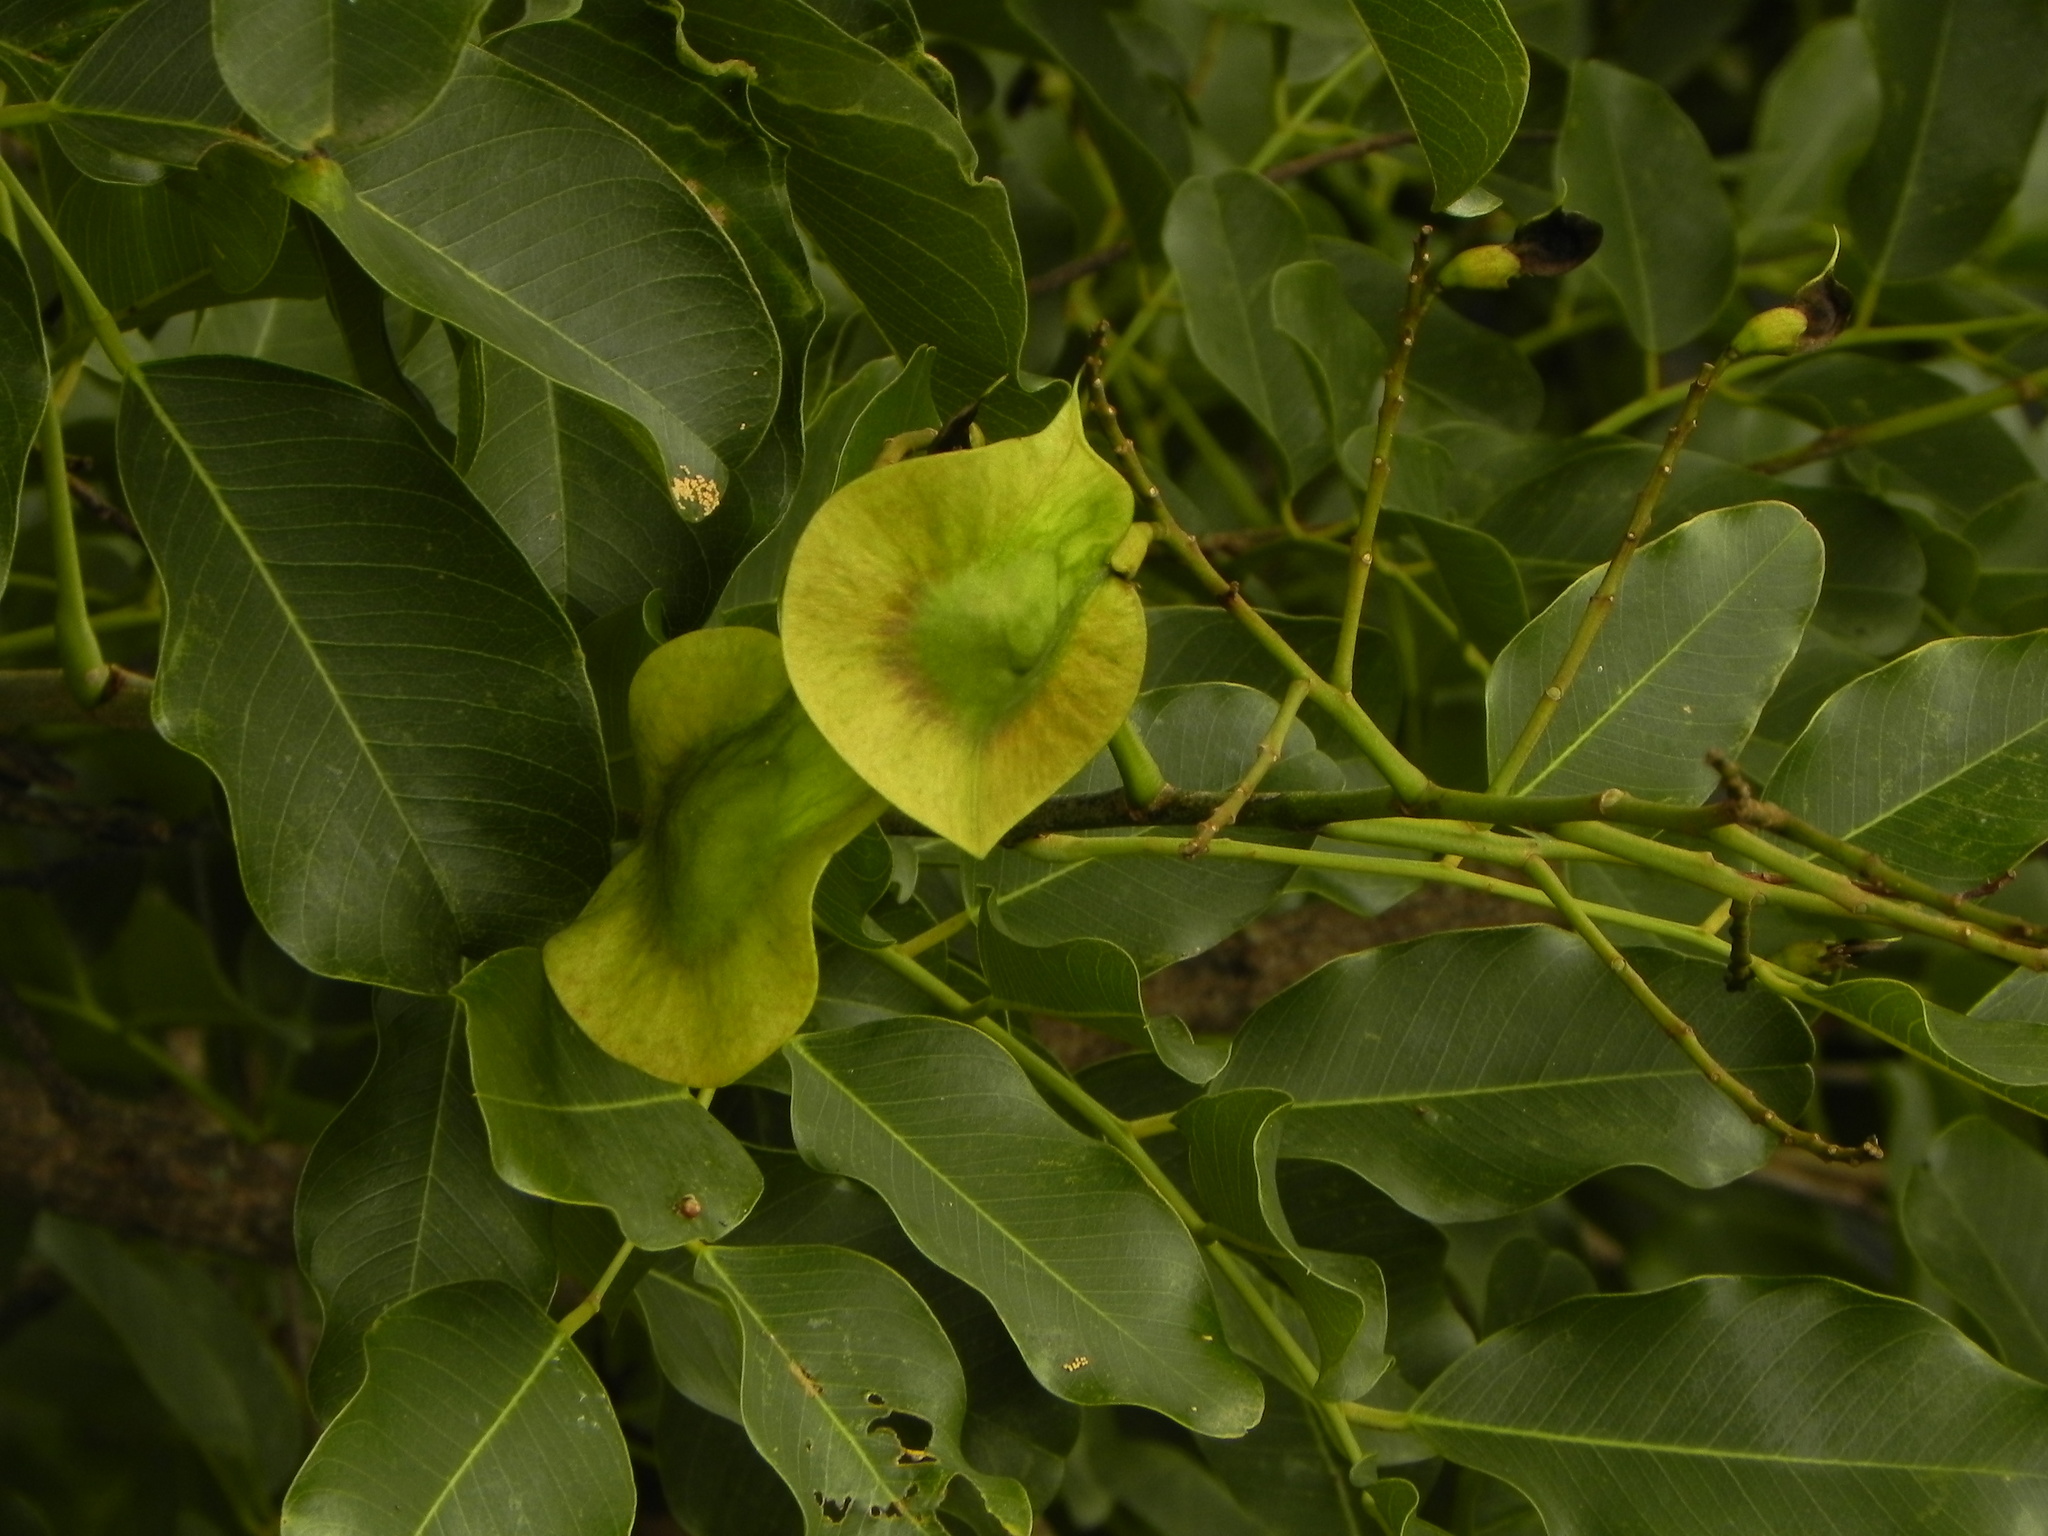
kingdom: Plantae
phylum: Tracheophyta
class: Magnoliopsida
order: Fabales
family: Fabaceae
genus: Pterocarpus
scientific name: Pterocarpus marsupium
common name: East indian/malabar kino
